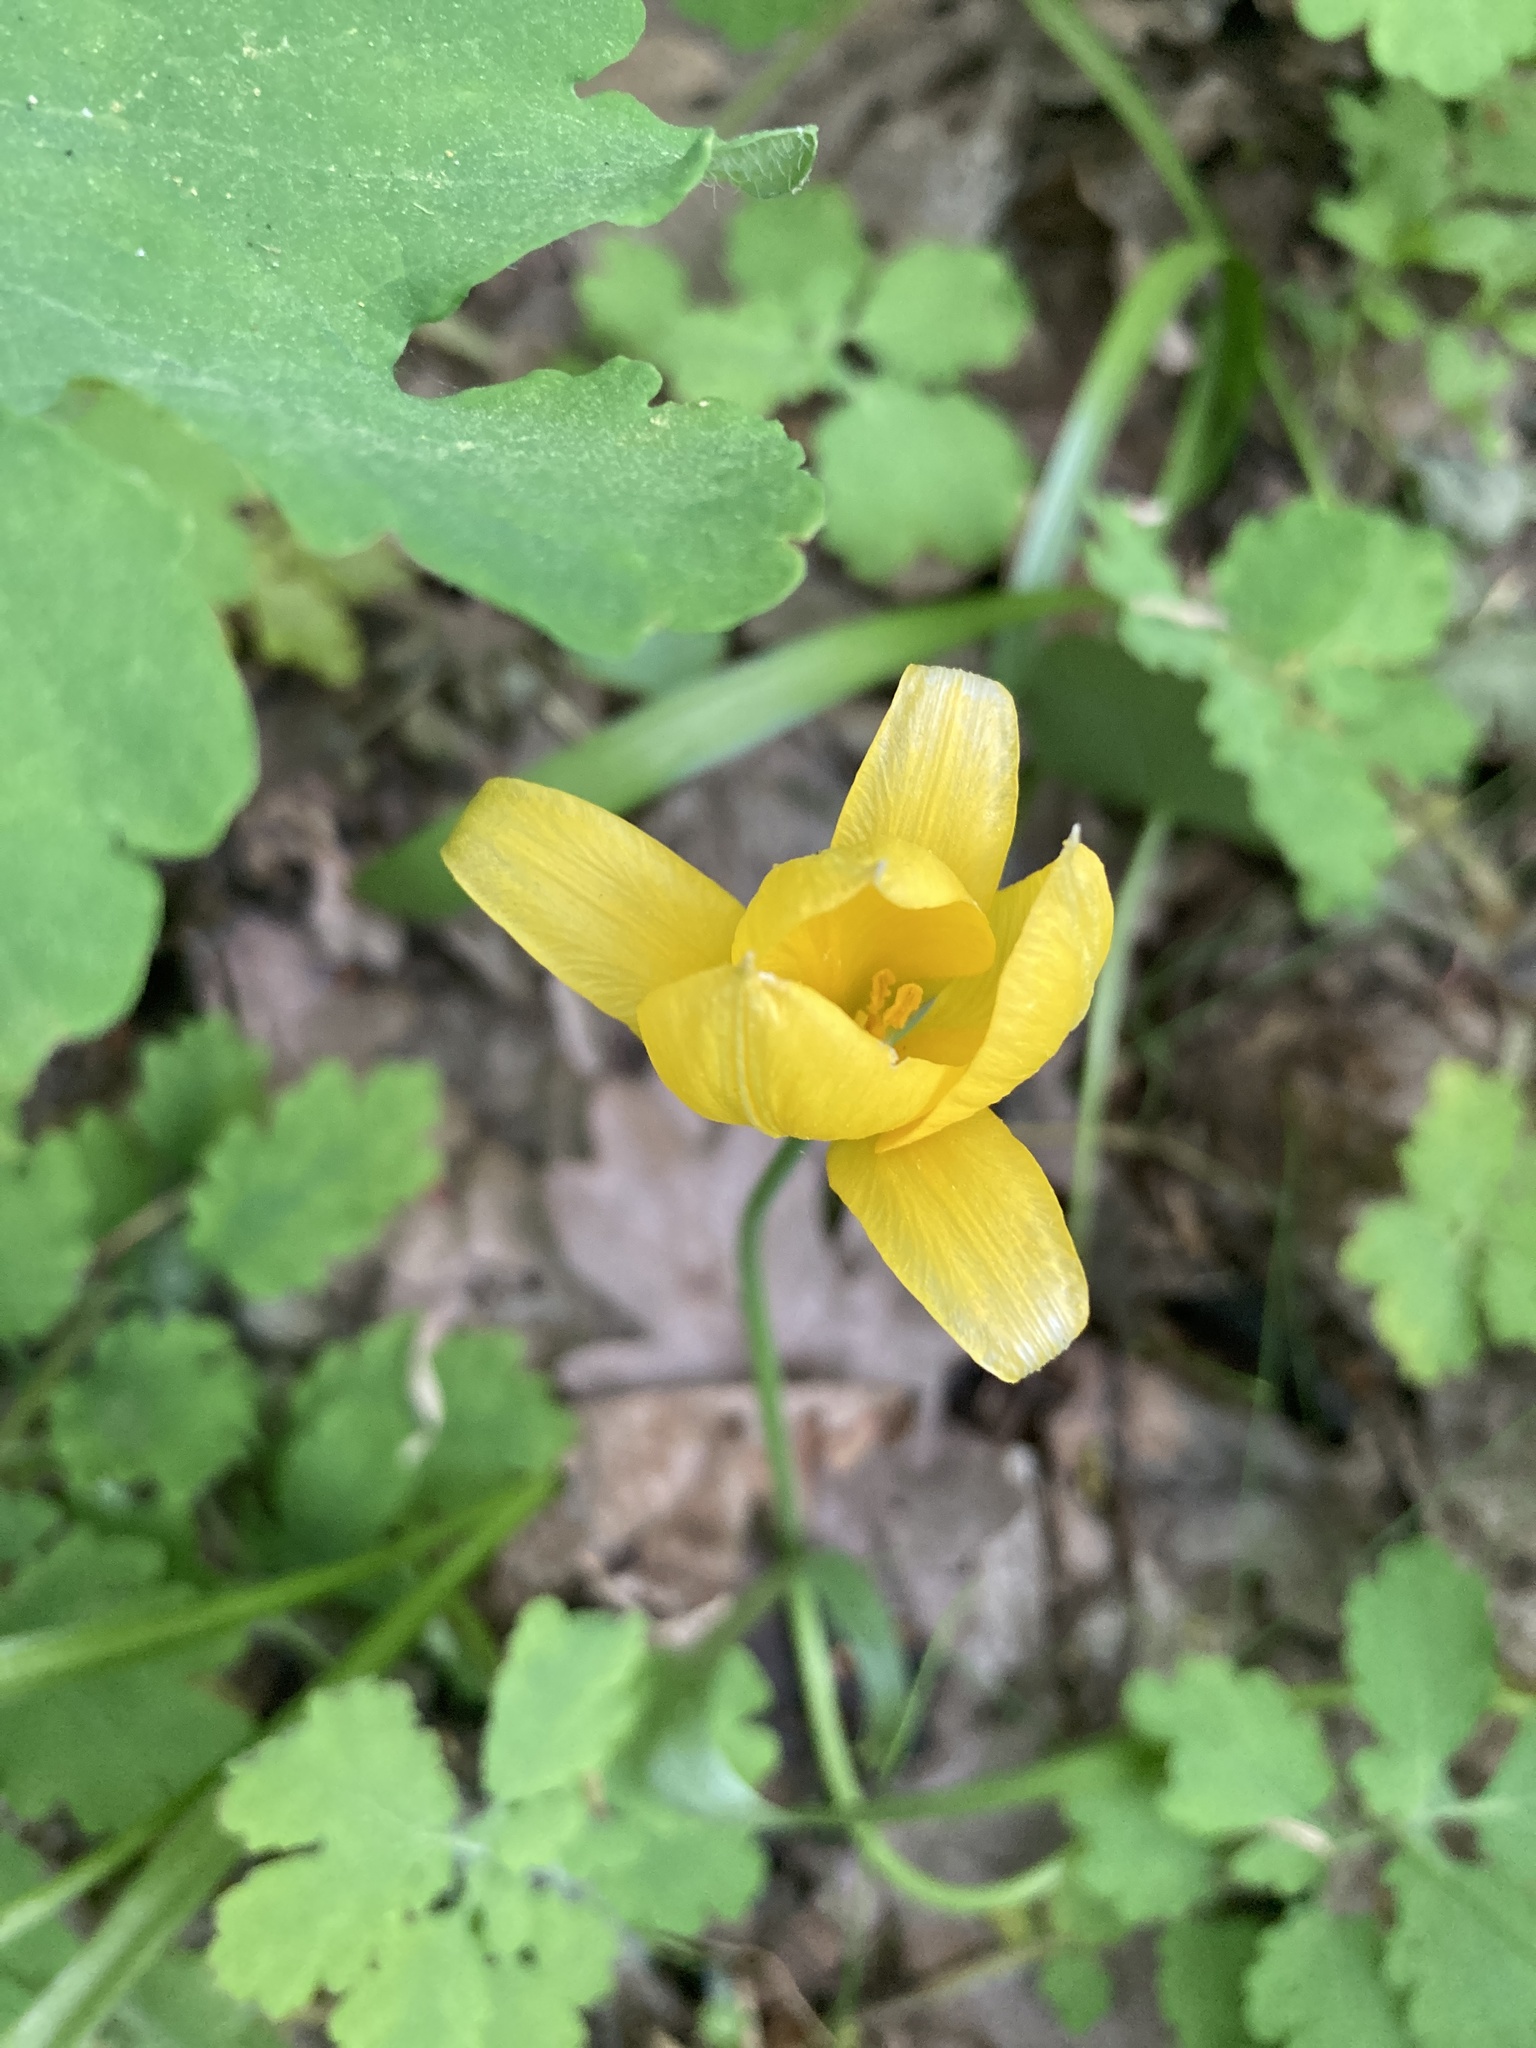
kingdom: Plantae
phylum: Tracheophyta
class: Liliopsida
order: Liliales
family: Liliaceae
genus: Tulipa
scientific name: Tulipa sylvestris
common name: Wild tulip
